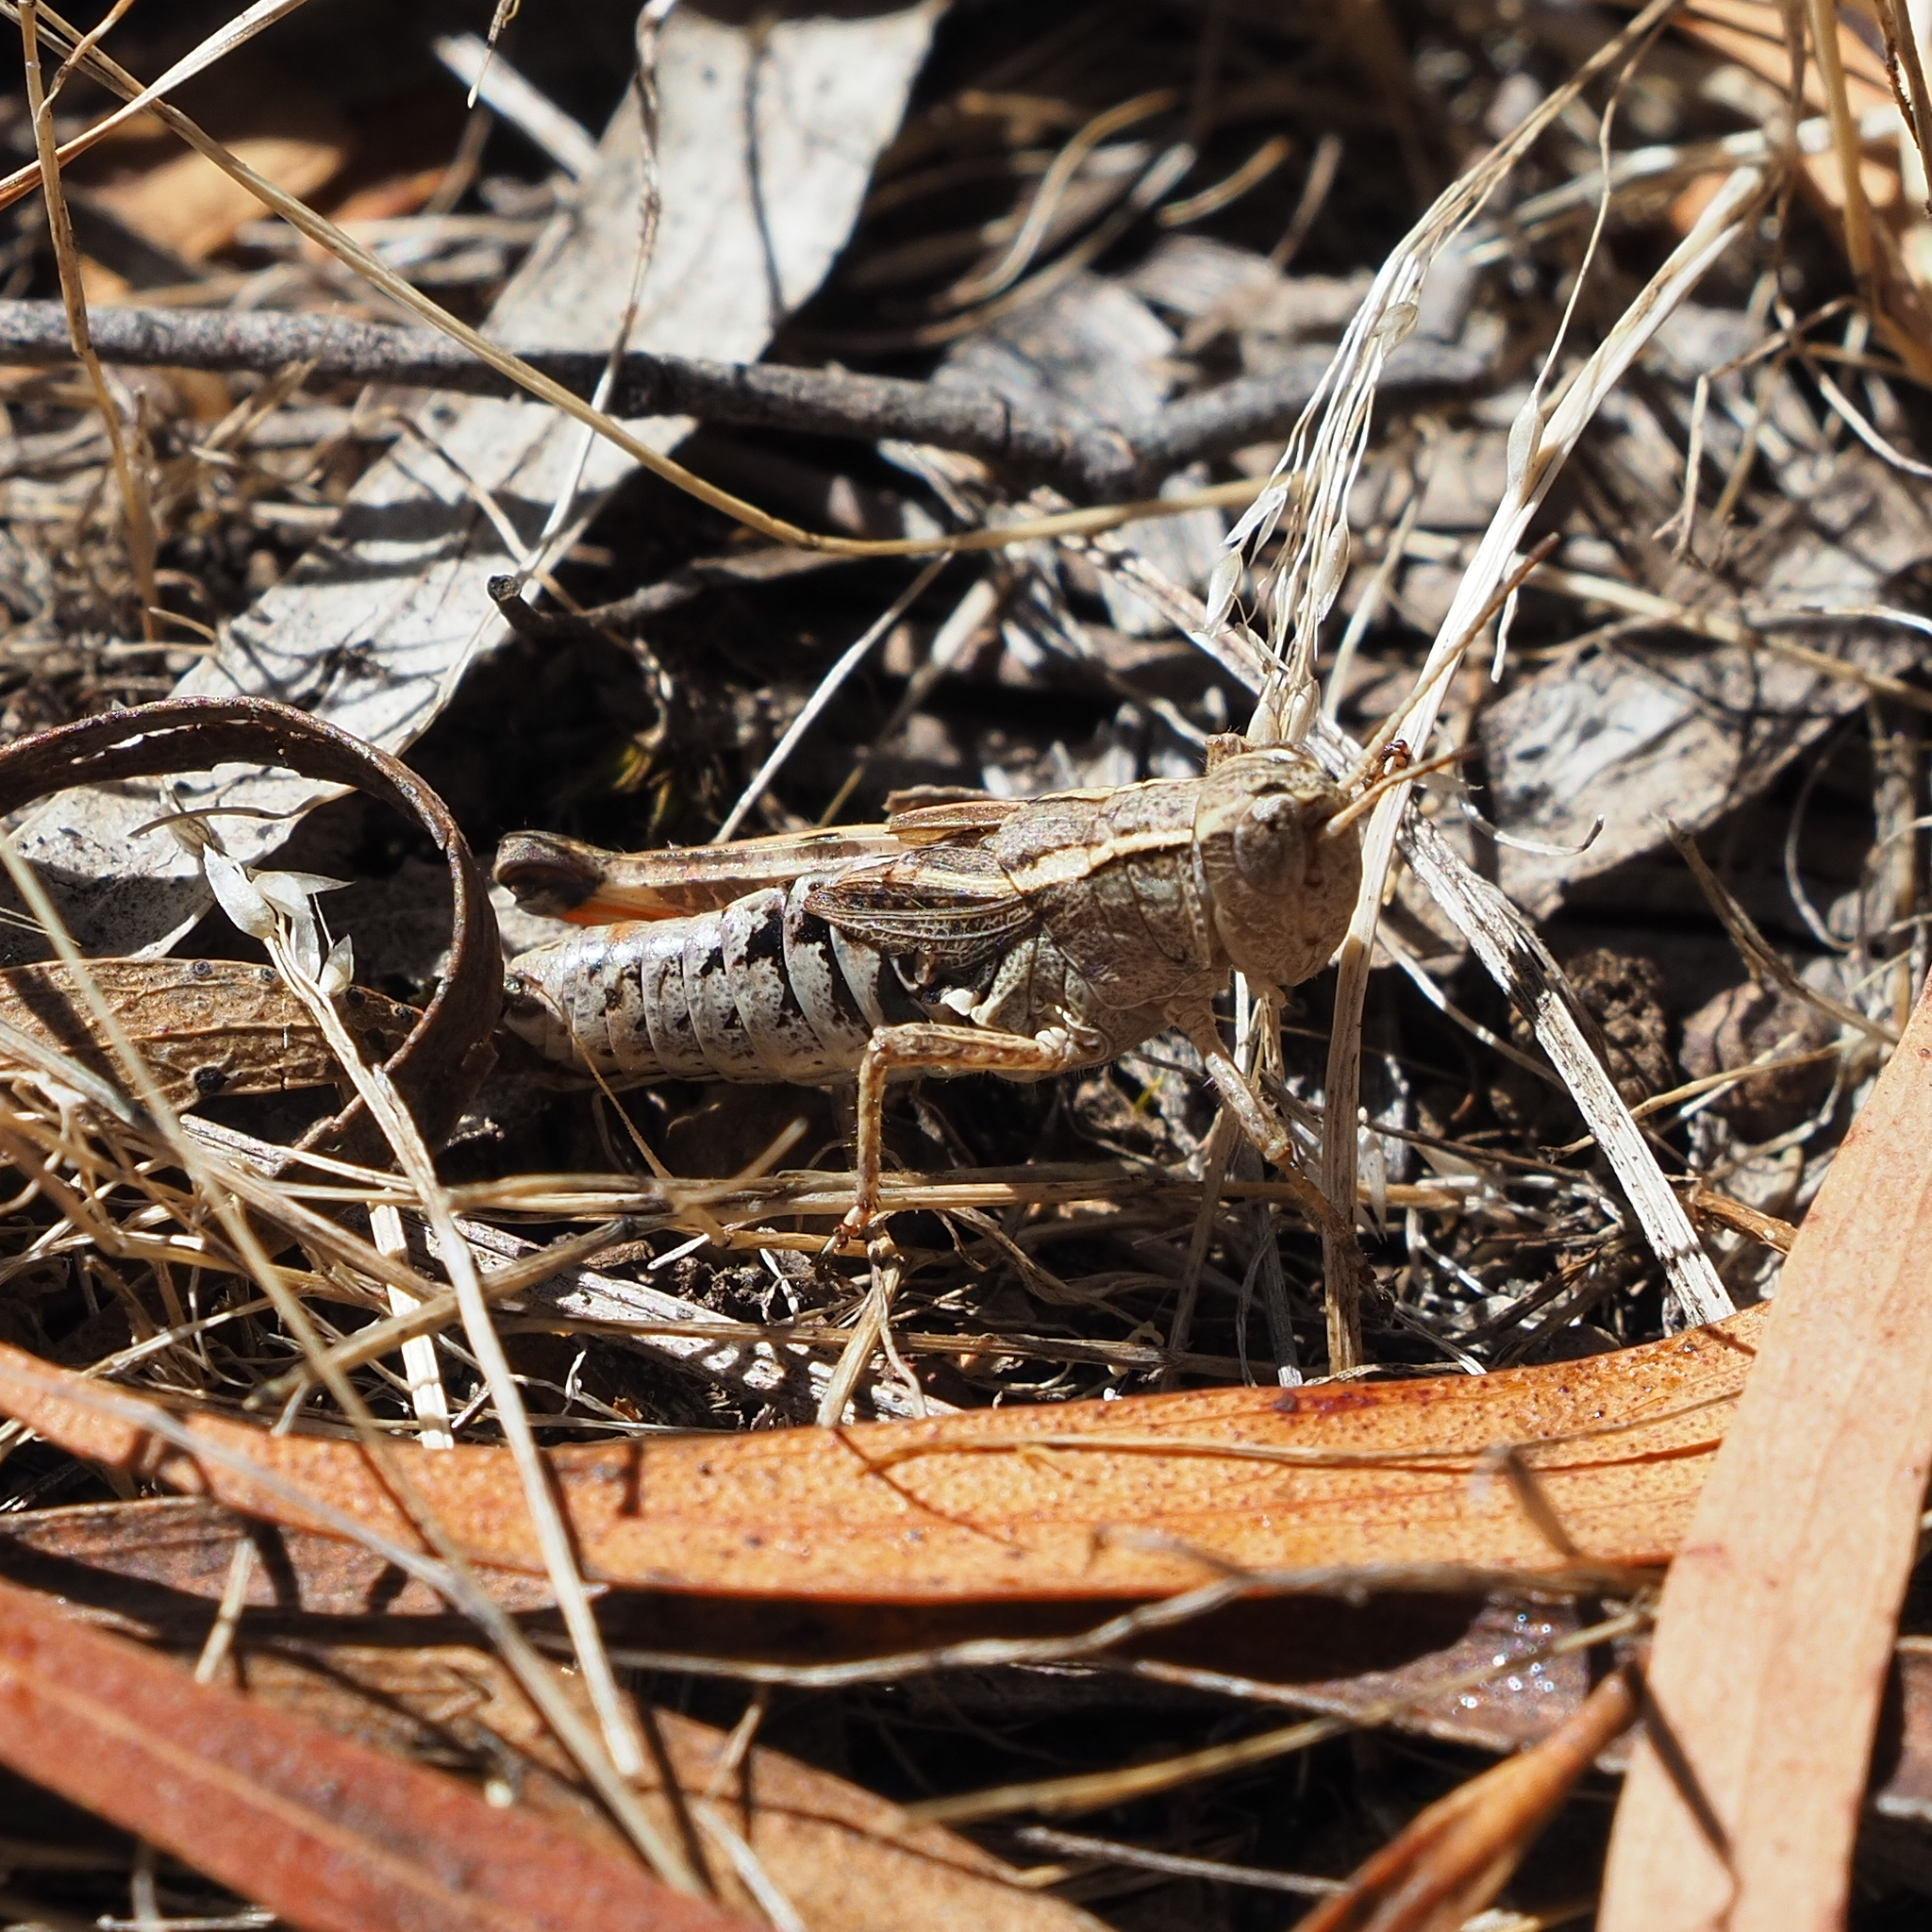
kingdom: Animalia
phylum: Arthropoda
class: Insecta
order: Orthoptera
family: Acrididae
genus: Phaulacridium
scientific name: Phaulacridium vittatum
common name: Wingless grasshopper
